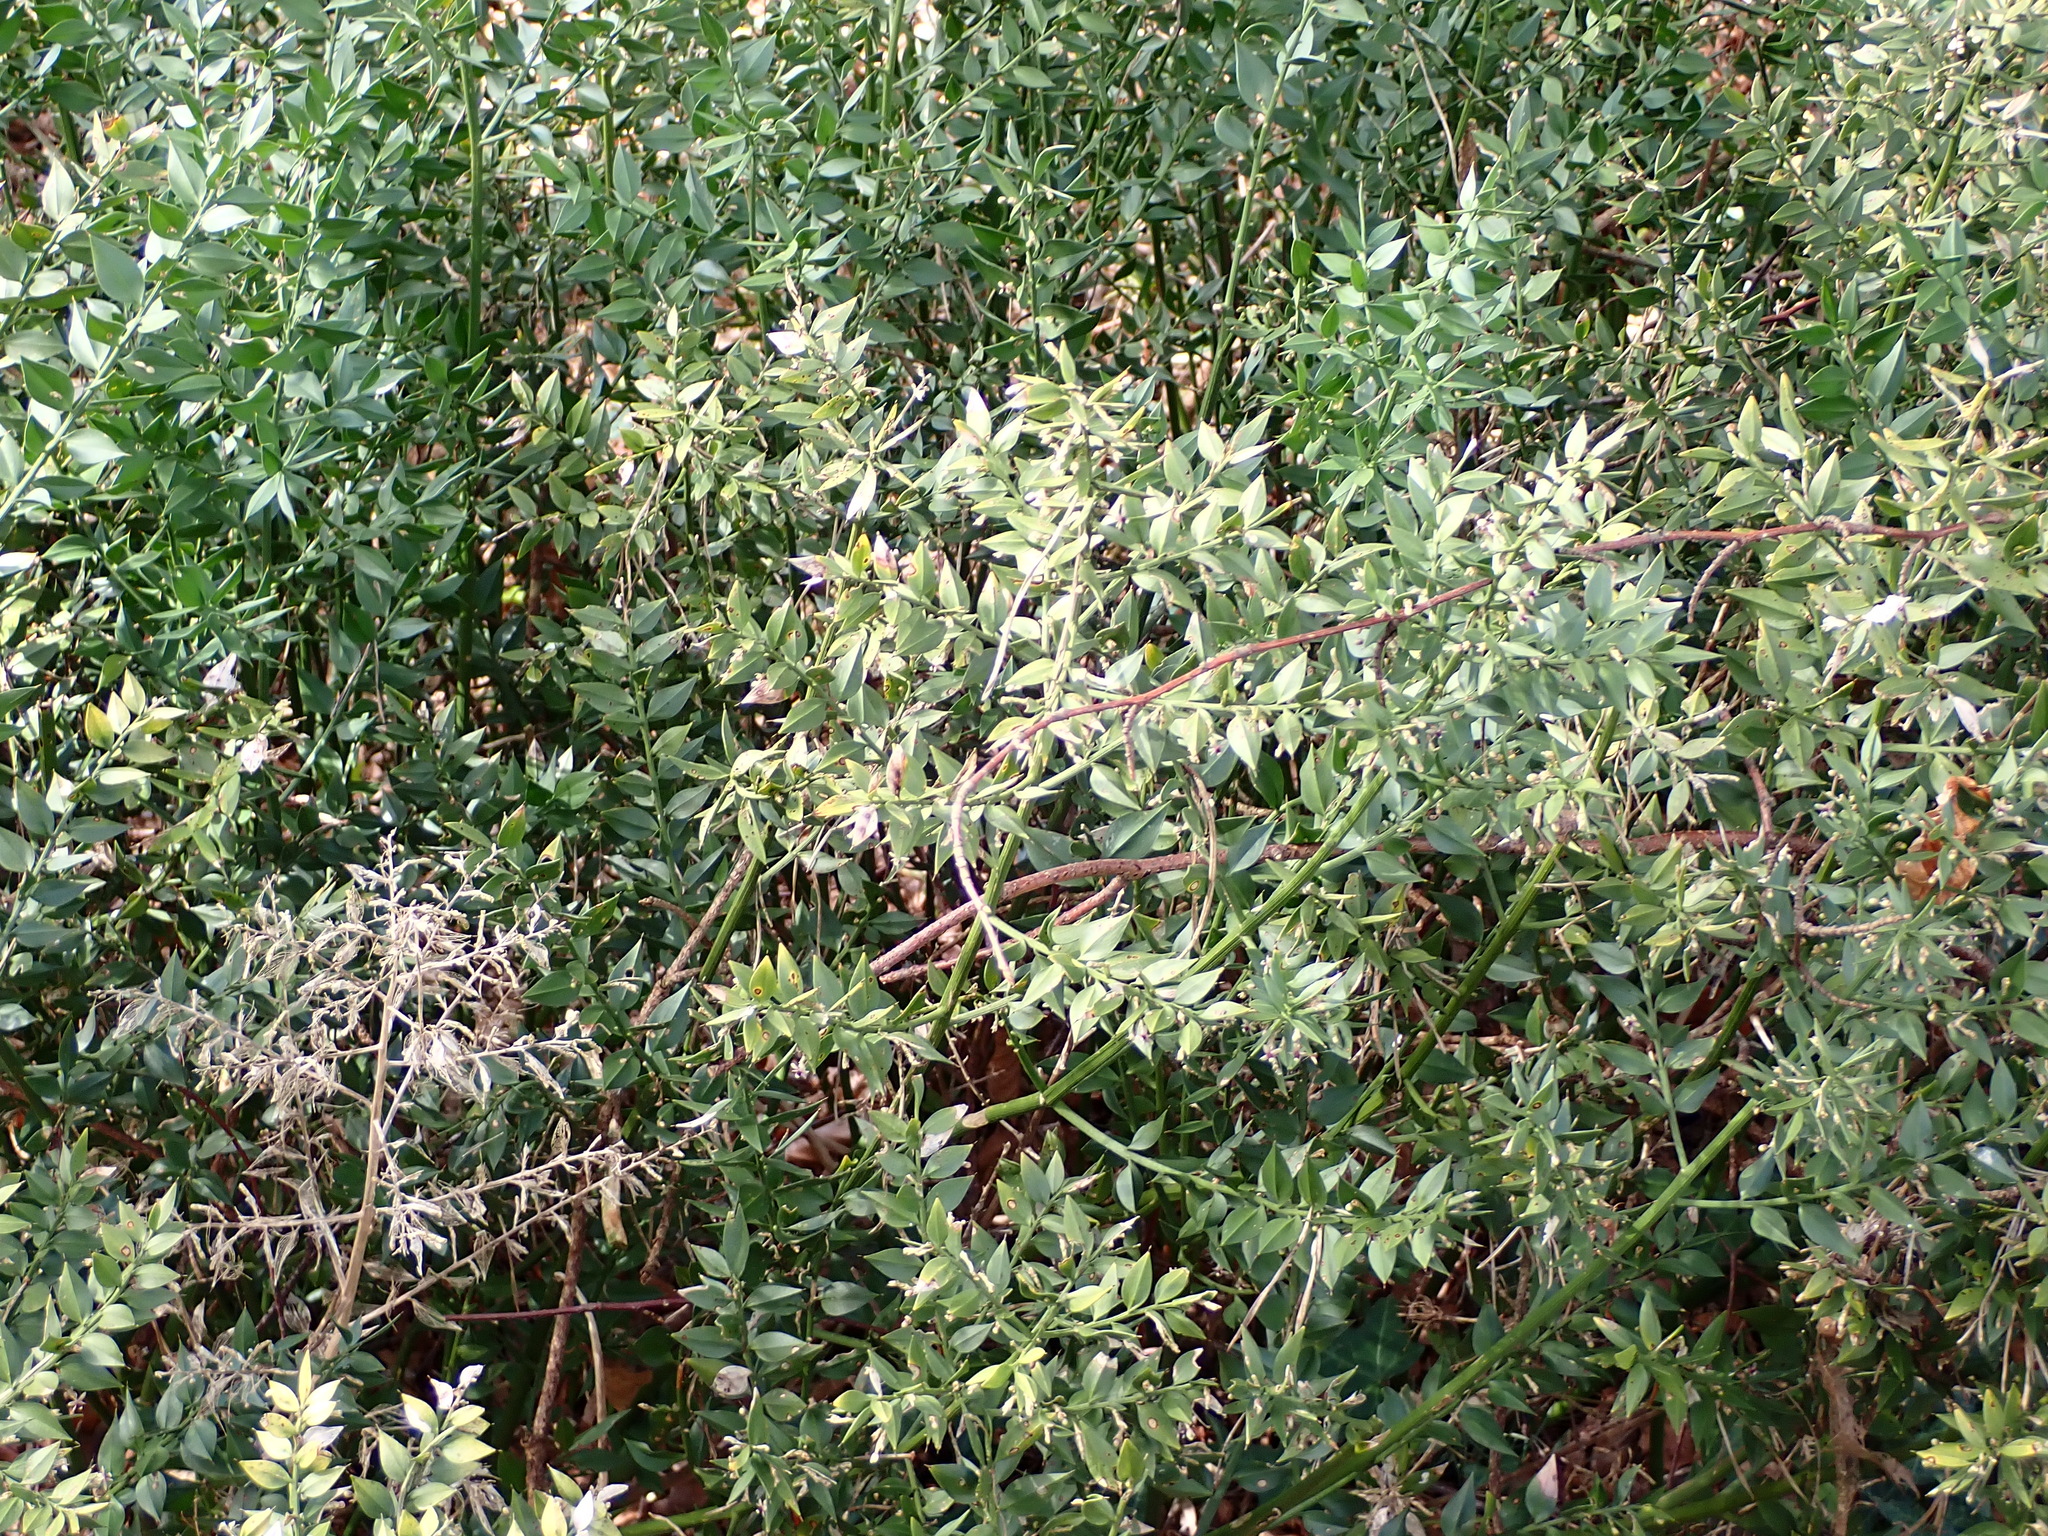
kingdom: Plantae
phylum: Tracheophyta
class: Liliopsida
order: Asparagales
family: Asparagaceae
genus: Ruscus
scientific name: Ruscus aculeatus
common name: Butcher's-broom
